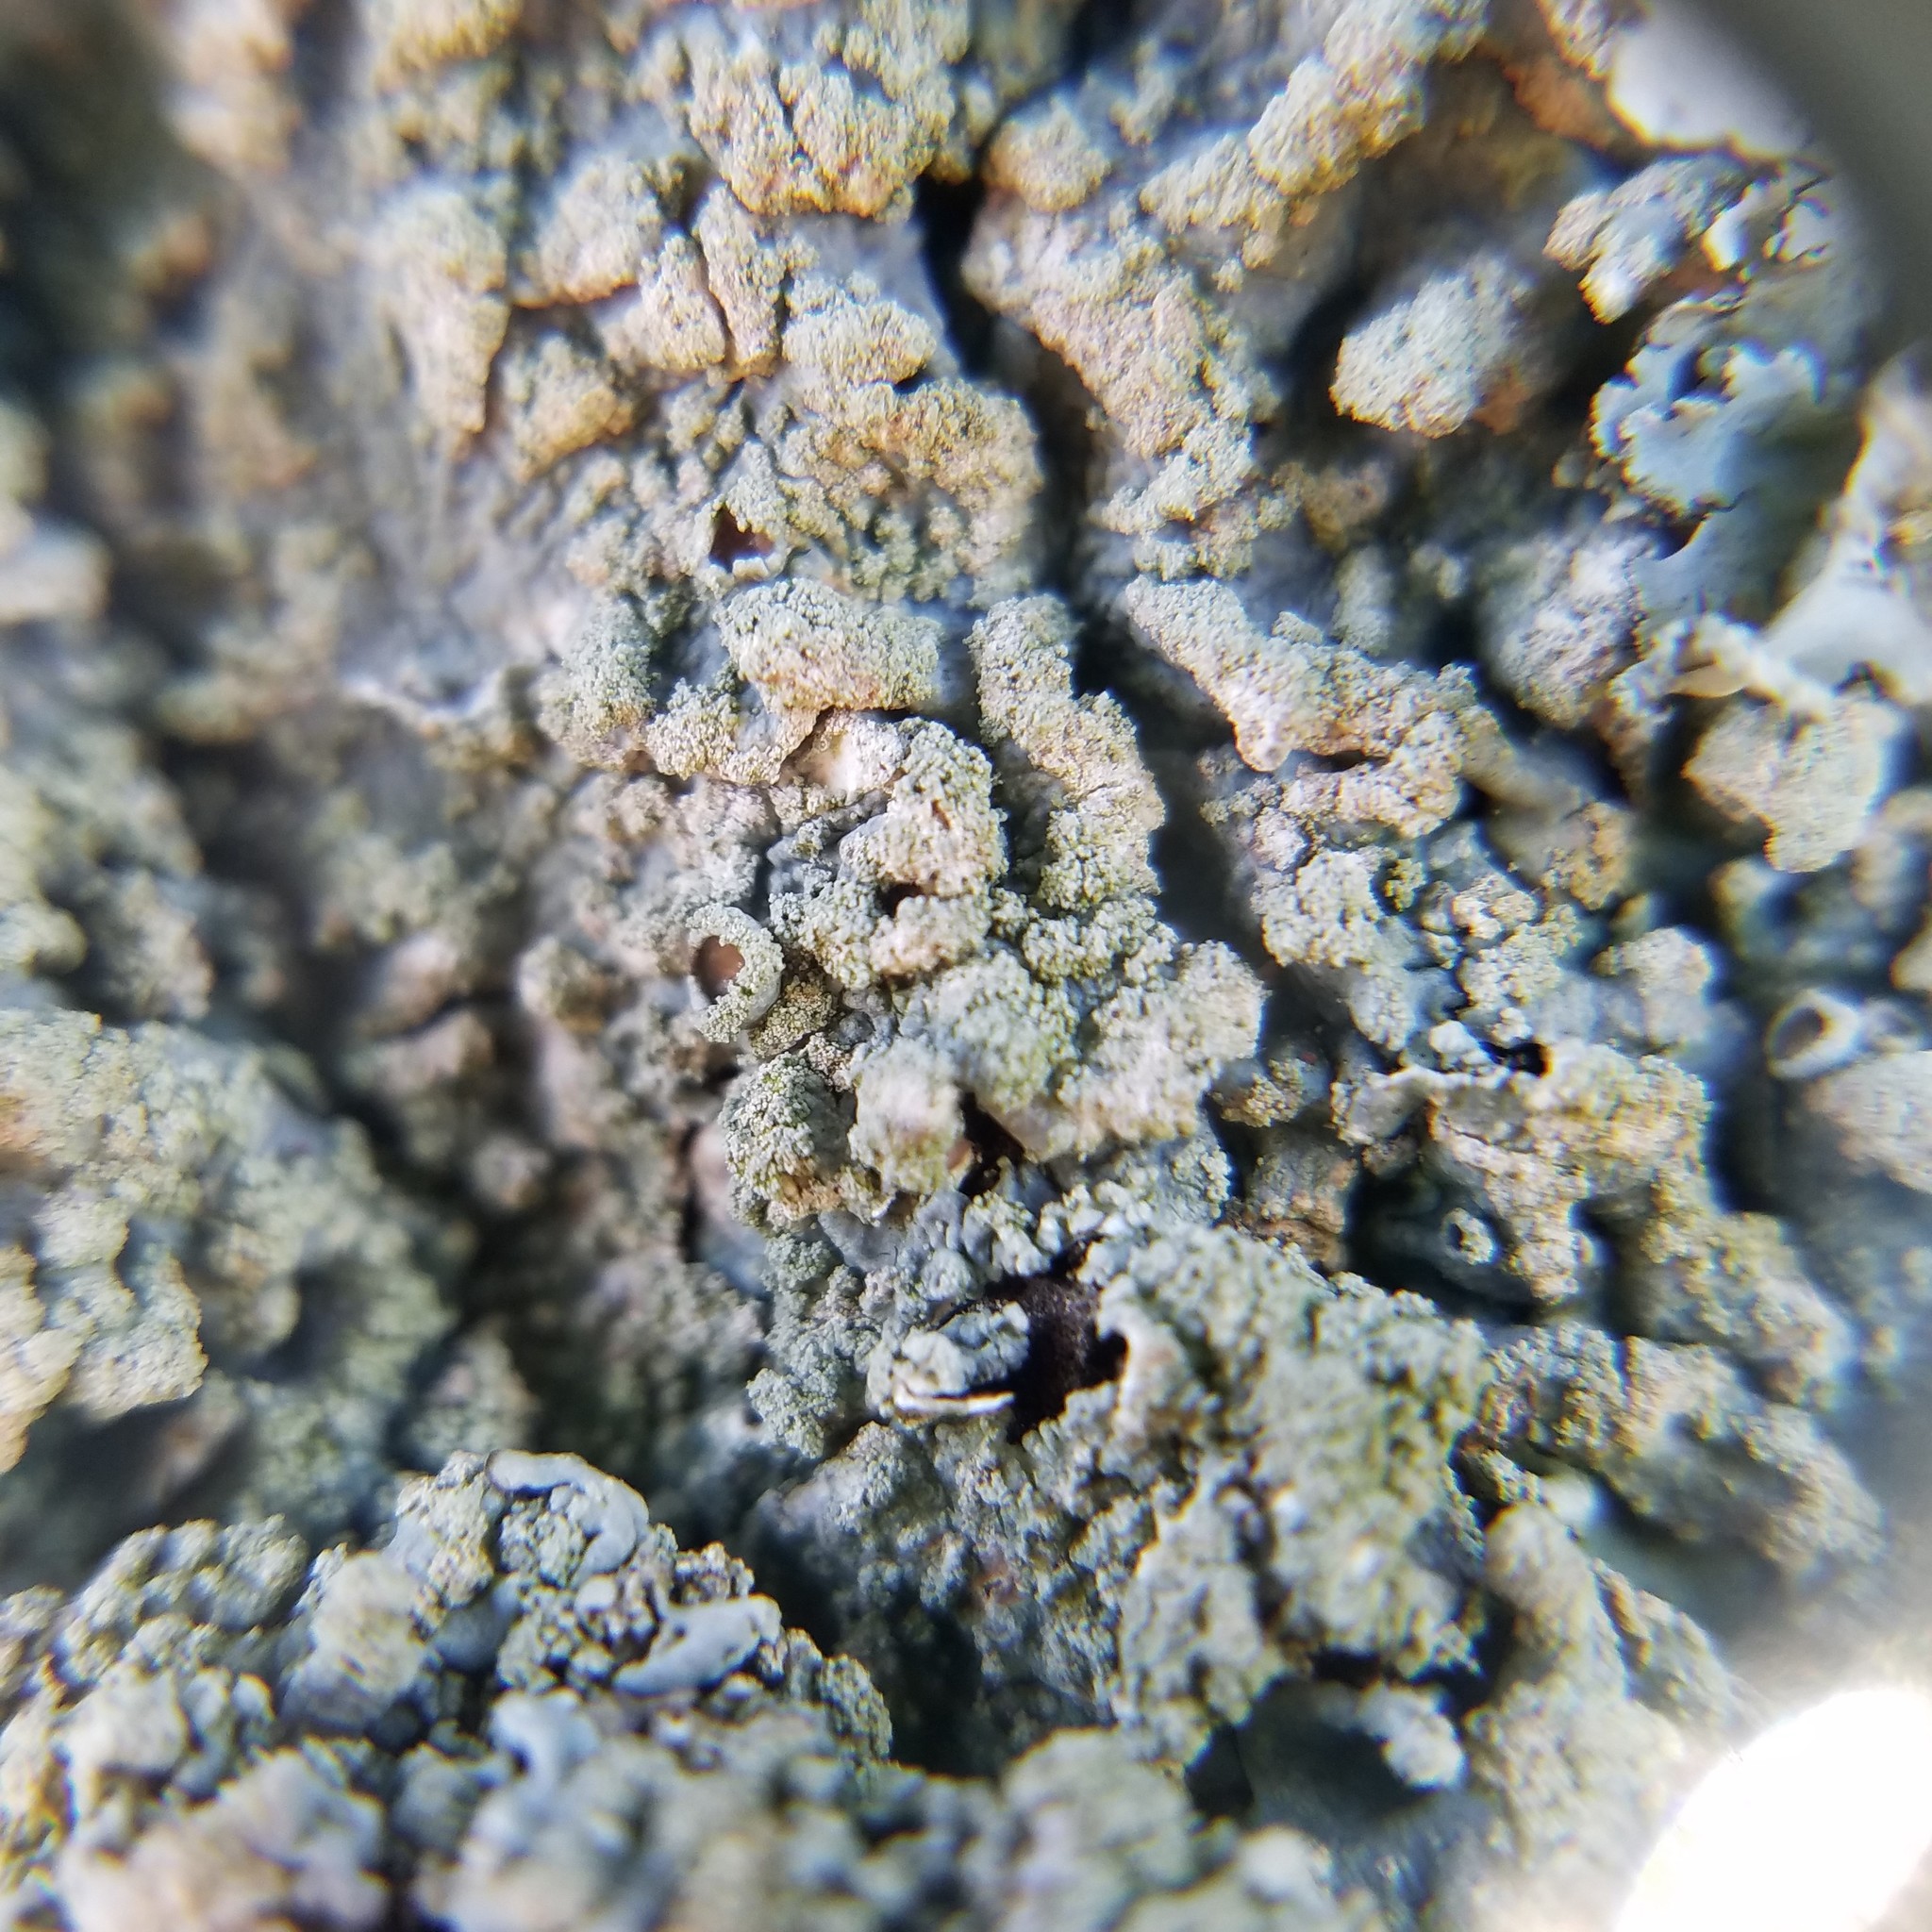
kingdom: Fungi
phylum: Ascomycota
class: Lecanoromycetes
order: Lecanorales
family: Parmeliaceae
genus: Canoparmelia
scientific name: Canoparmelia texana
